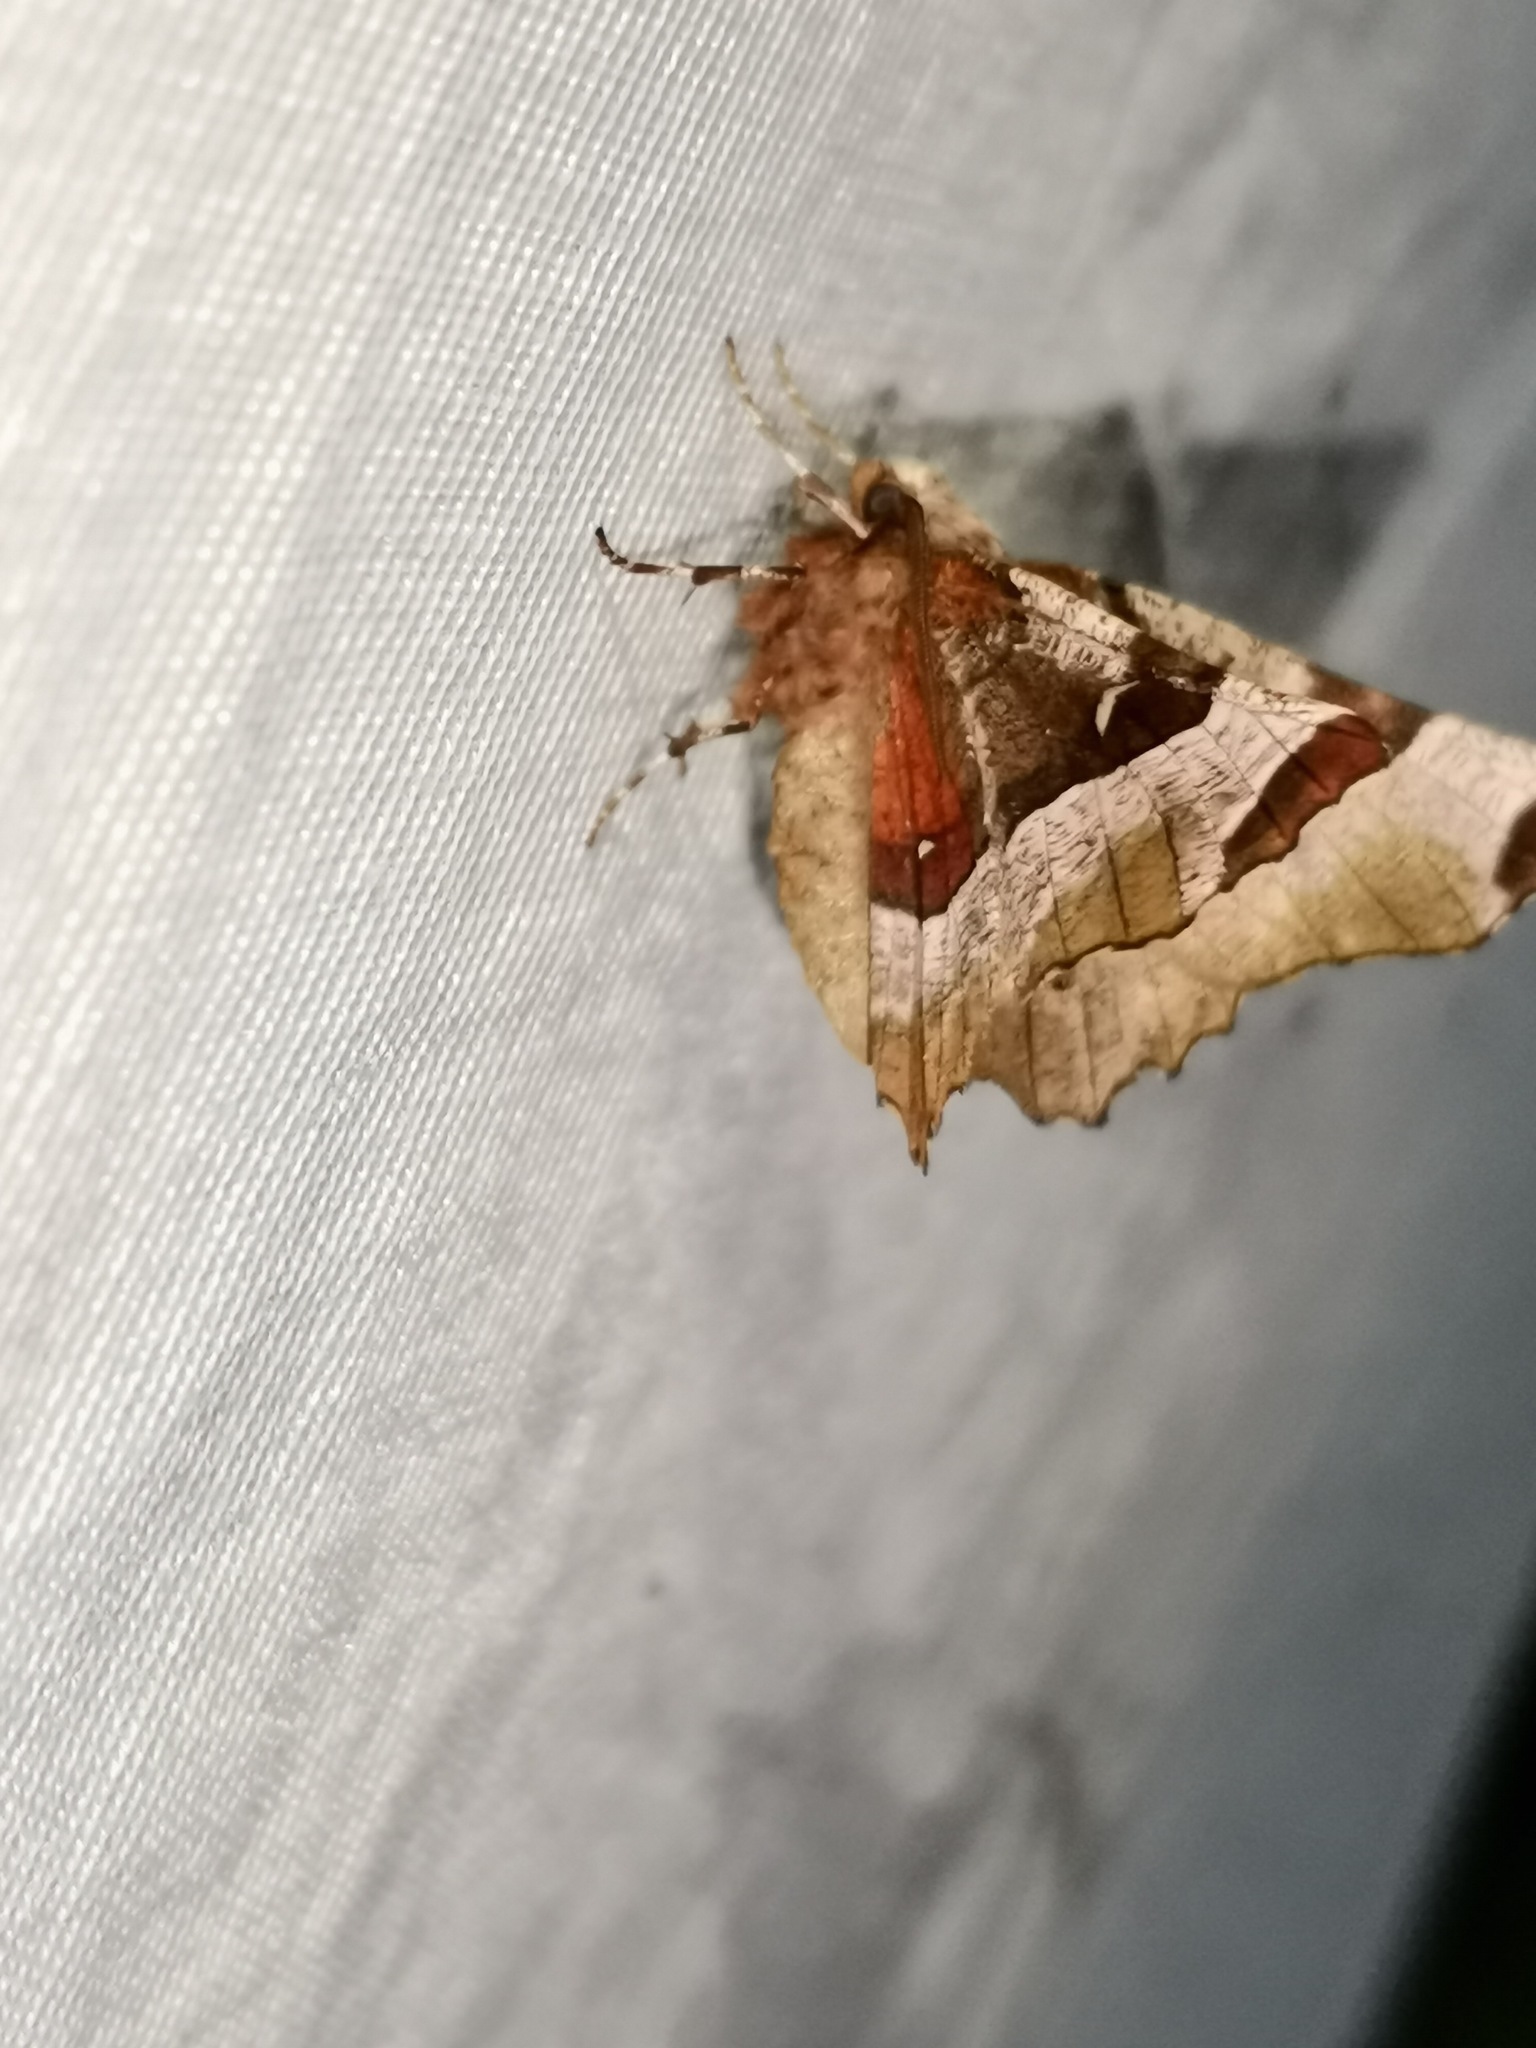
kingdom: Animalia
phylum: Arthropoda
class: Insecta
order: Lepidoptera
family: Geometridae
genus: Selenia
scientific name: Selenia tetralunaria
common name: Purple thorn
